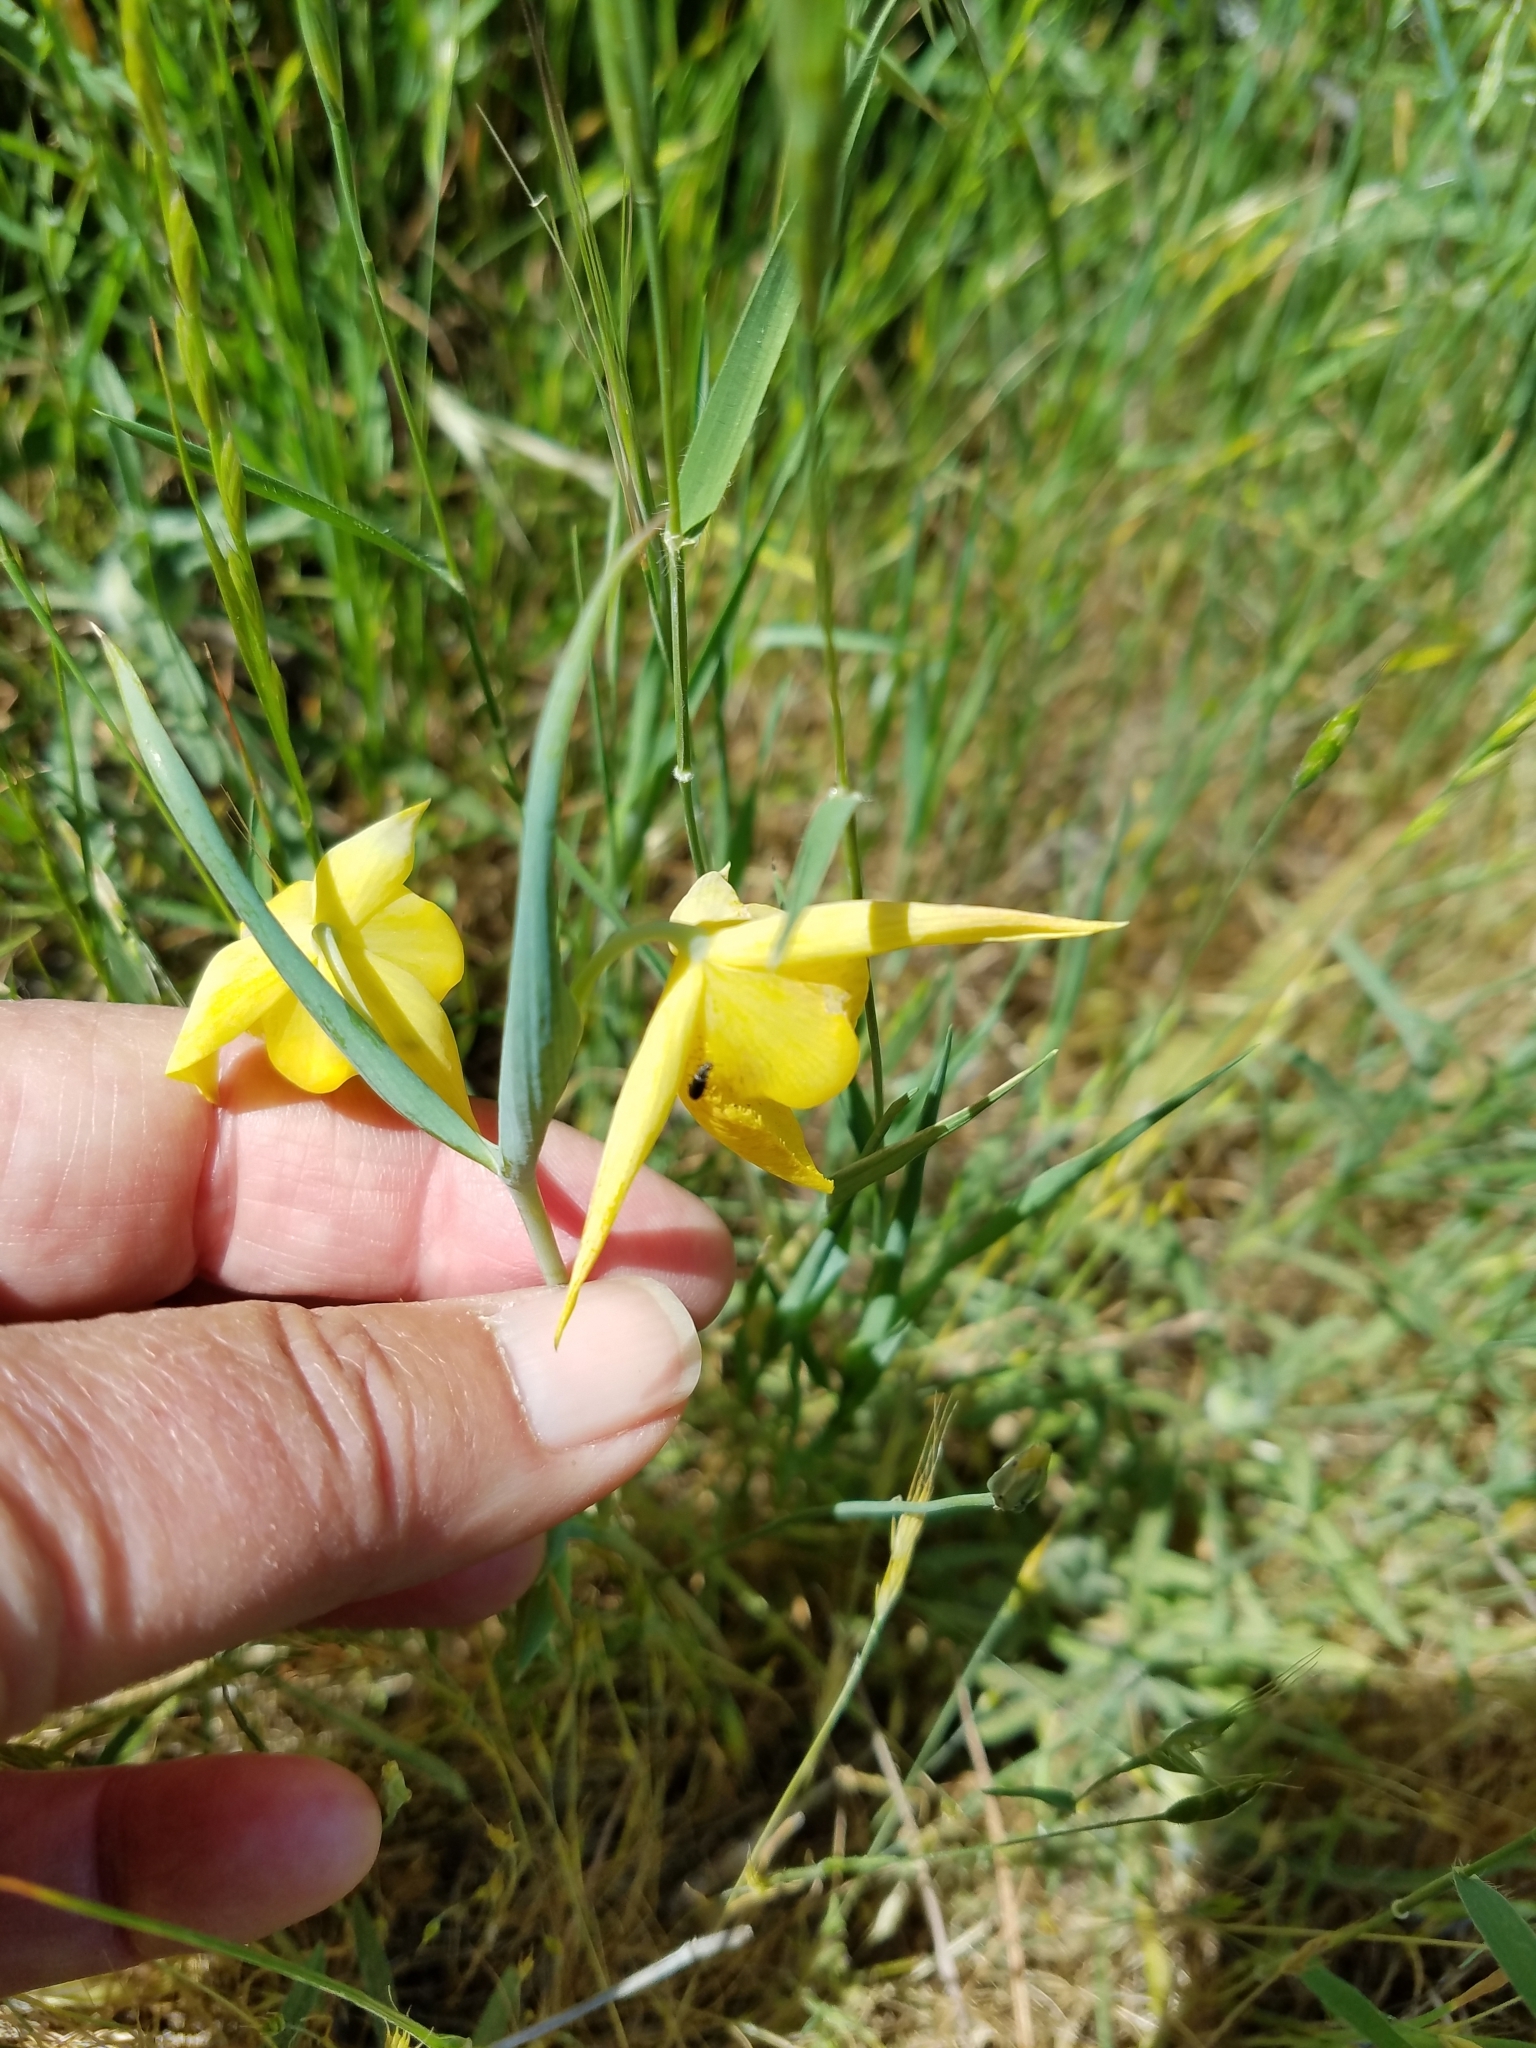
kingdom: Plantae
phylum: Tracheophyta
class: Liliopsida
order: Liliales
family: Liliaceae
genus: Calochortus
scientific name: Calochortus pulchellus
